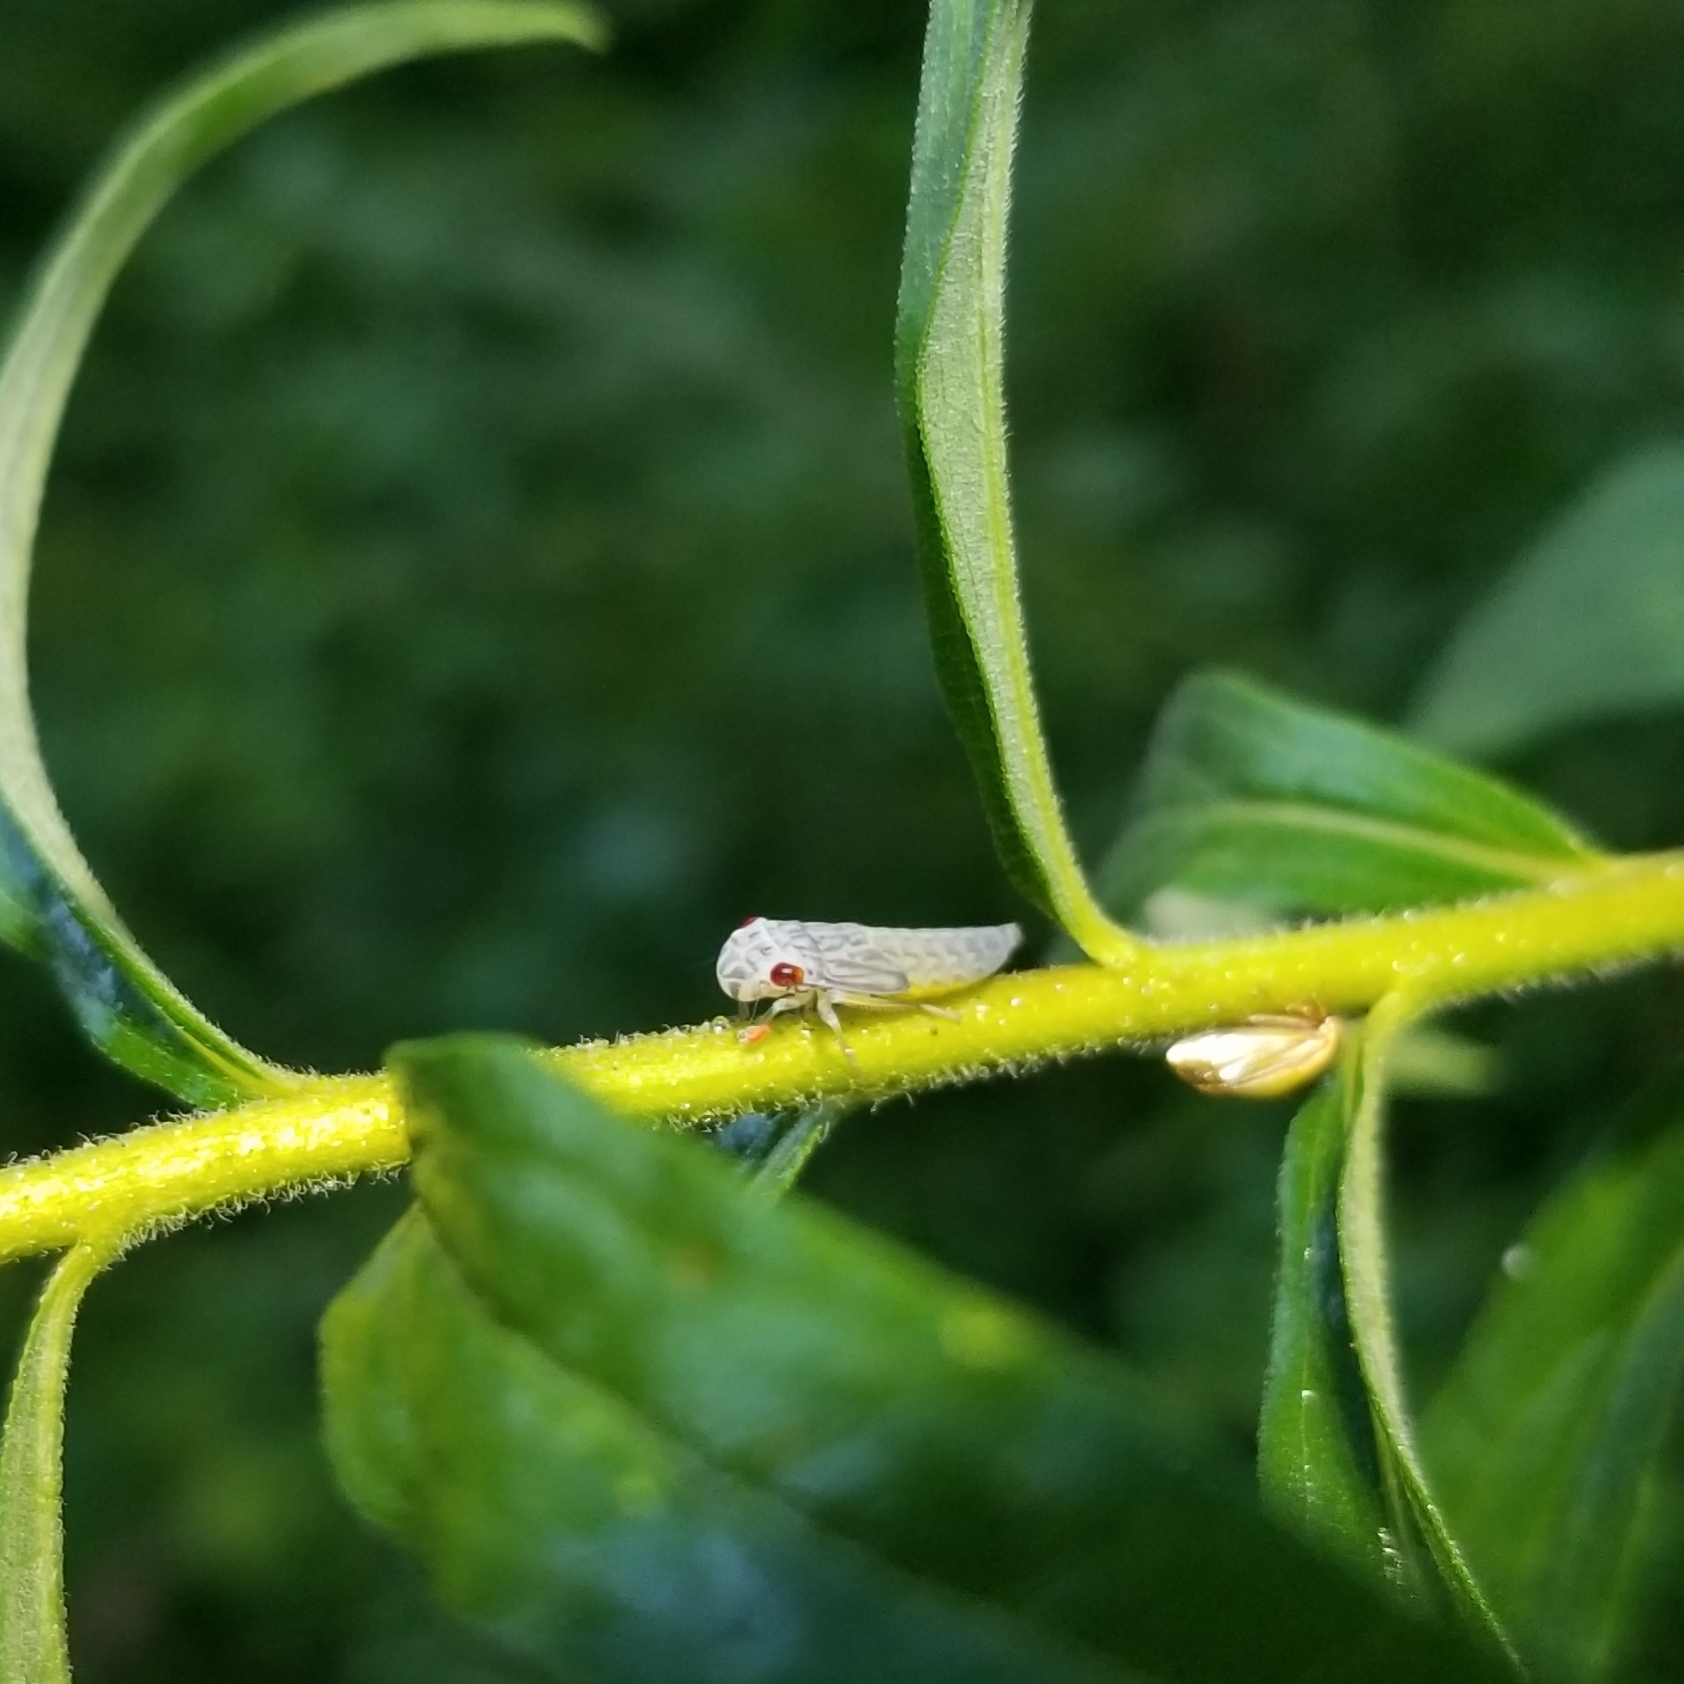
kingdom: Animalia
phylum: Arthropoda
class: Insecta
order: Hemiptera
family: Cicadellidae
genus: Oncometopia
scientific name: Oncometopia orbona
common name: Broad-headed sharpshooter
